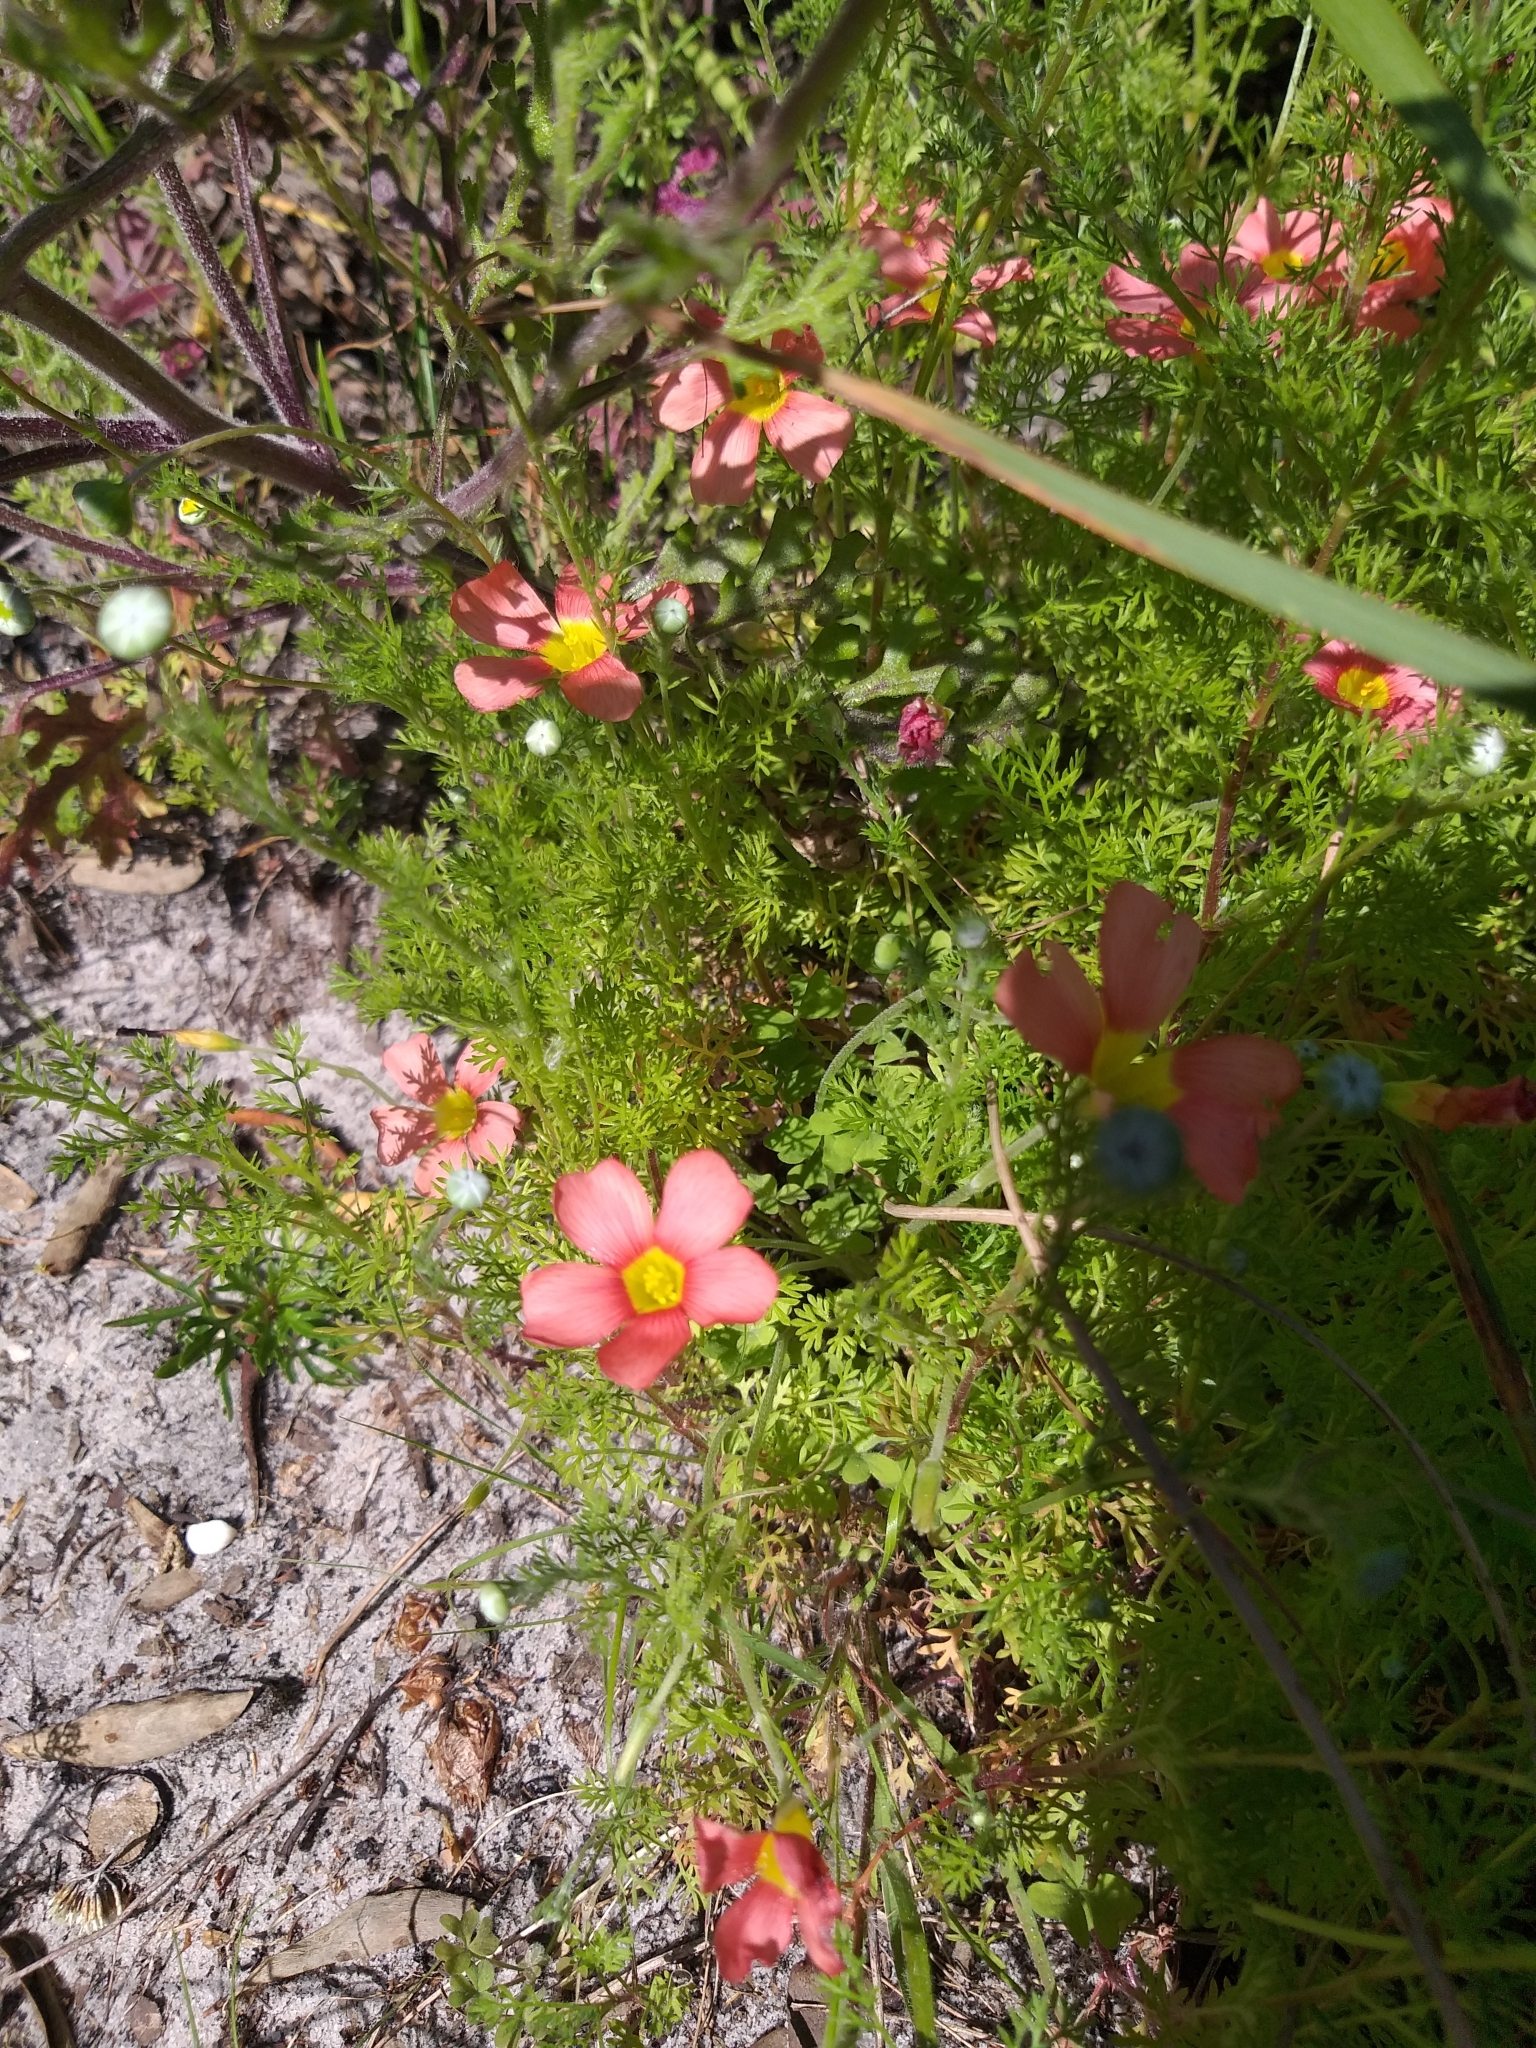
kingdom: Plantae
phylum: Tracheophyta
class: Magnoliopsida
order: Oxalidales
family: Oxalidaceae
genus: Oxalis
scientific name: Oxalis obtusa
